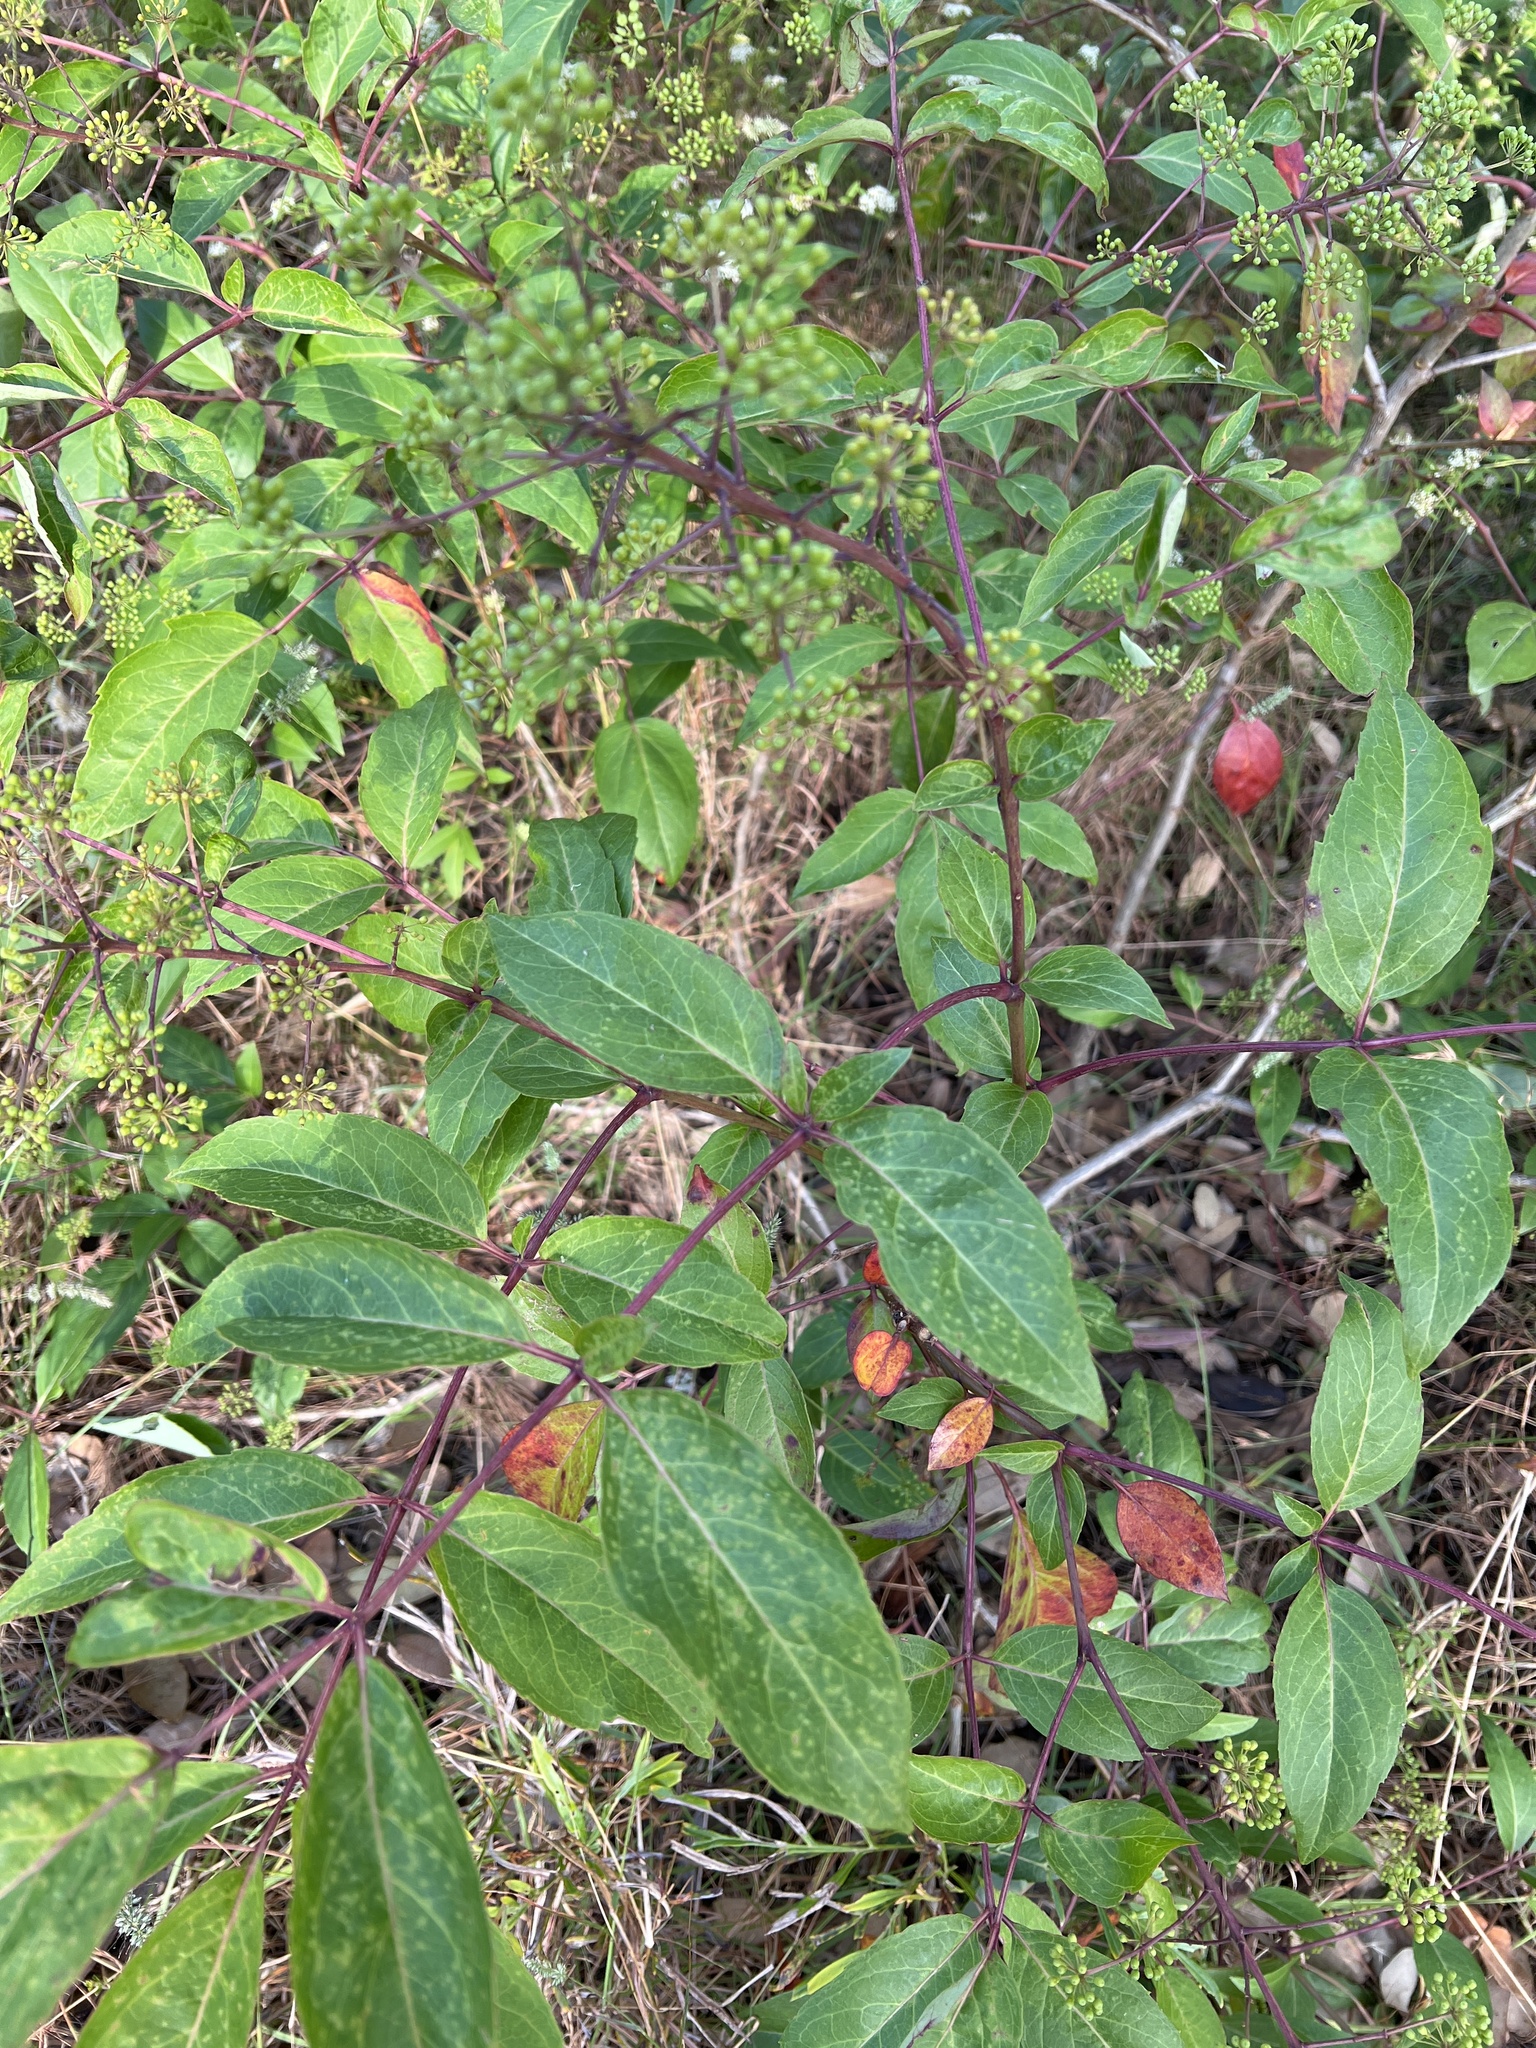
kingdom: Plantae
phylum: Tracheophyta
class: Magnoliopsida
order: Apiales
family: Araliaceae
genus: Polyscias
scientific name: Polyscias sambucifolia
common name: Elderberry-ash
